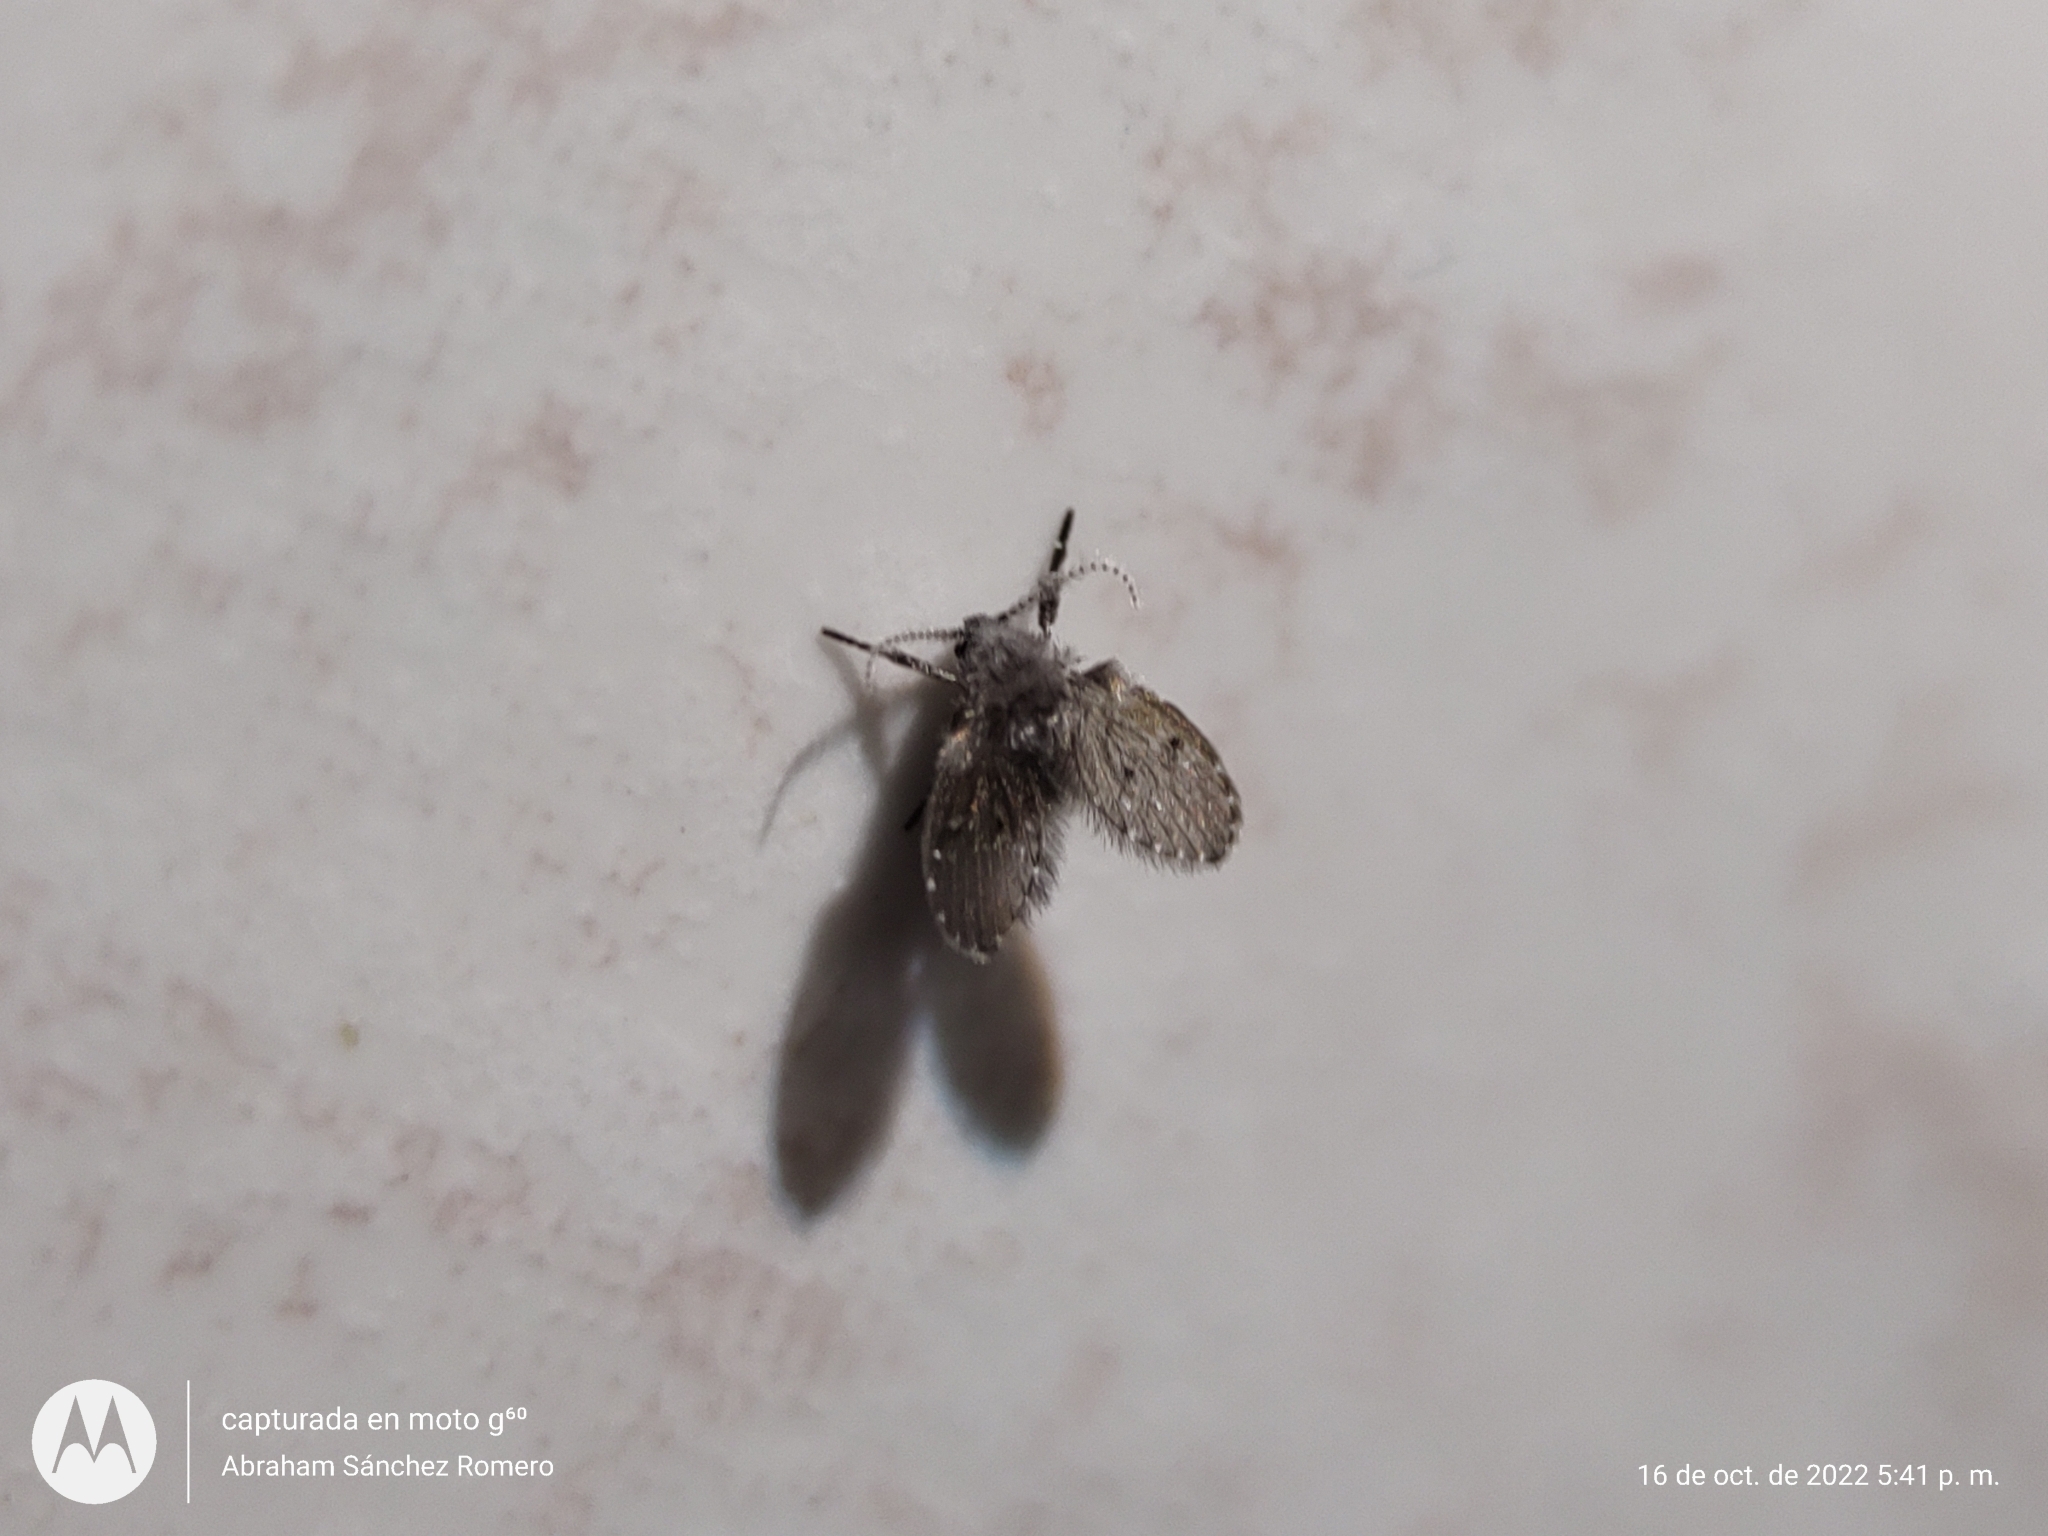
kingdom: Animalia
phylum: Arthropoda
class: Insecta
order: Diptera
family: Psychodidae
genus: Clogmia
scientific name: Clogmia albipunctatus
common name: White-spotted moth fly
